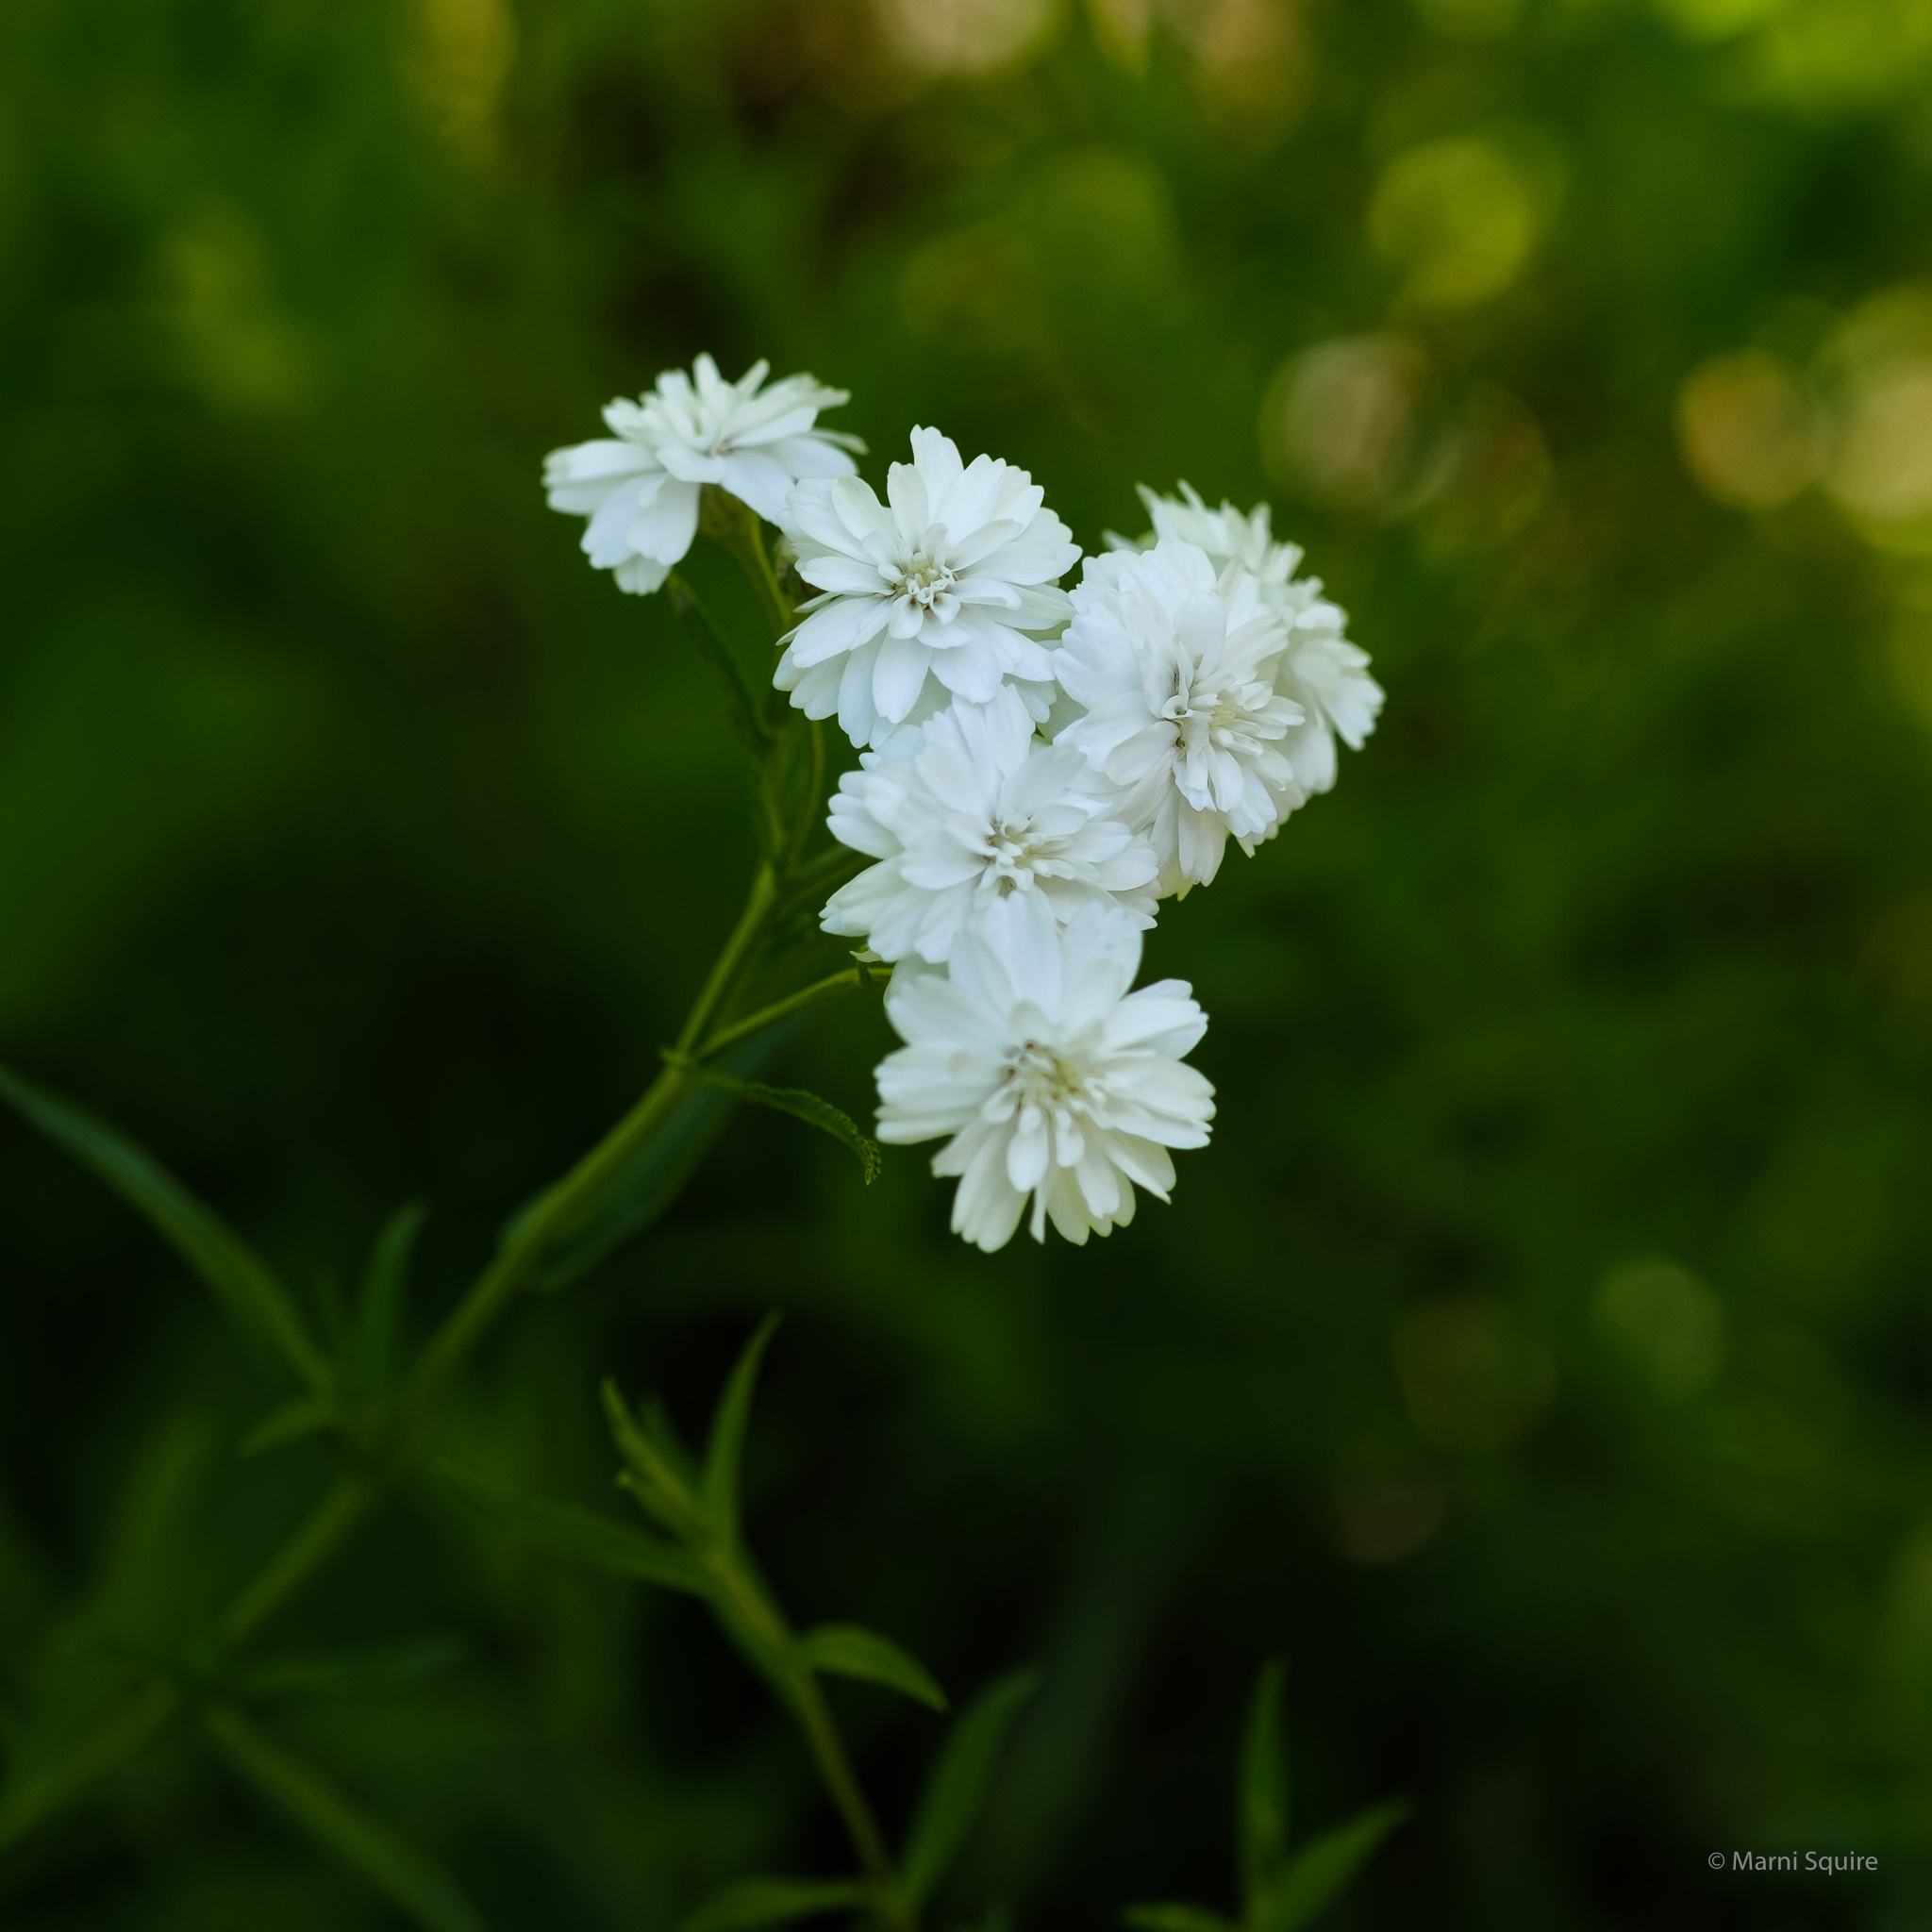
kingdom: Plantae
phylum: Tracheophyta
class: Magnoliopsida
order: Asterales
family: Asteraceae
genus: Achillea
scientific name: Achillea ptarmica
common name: Sneezeweed
